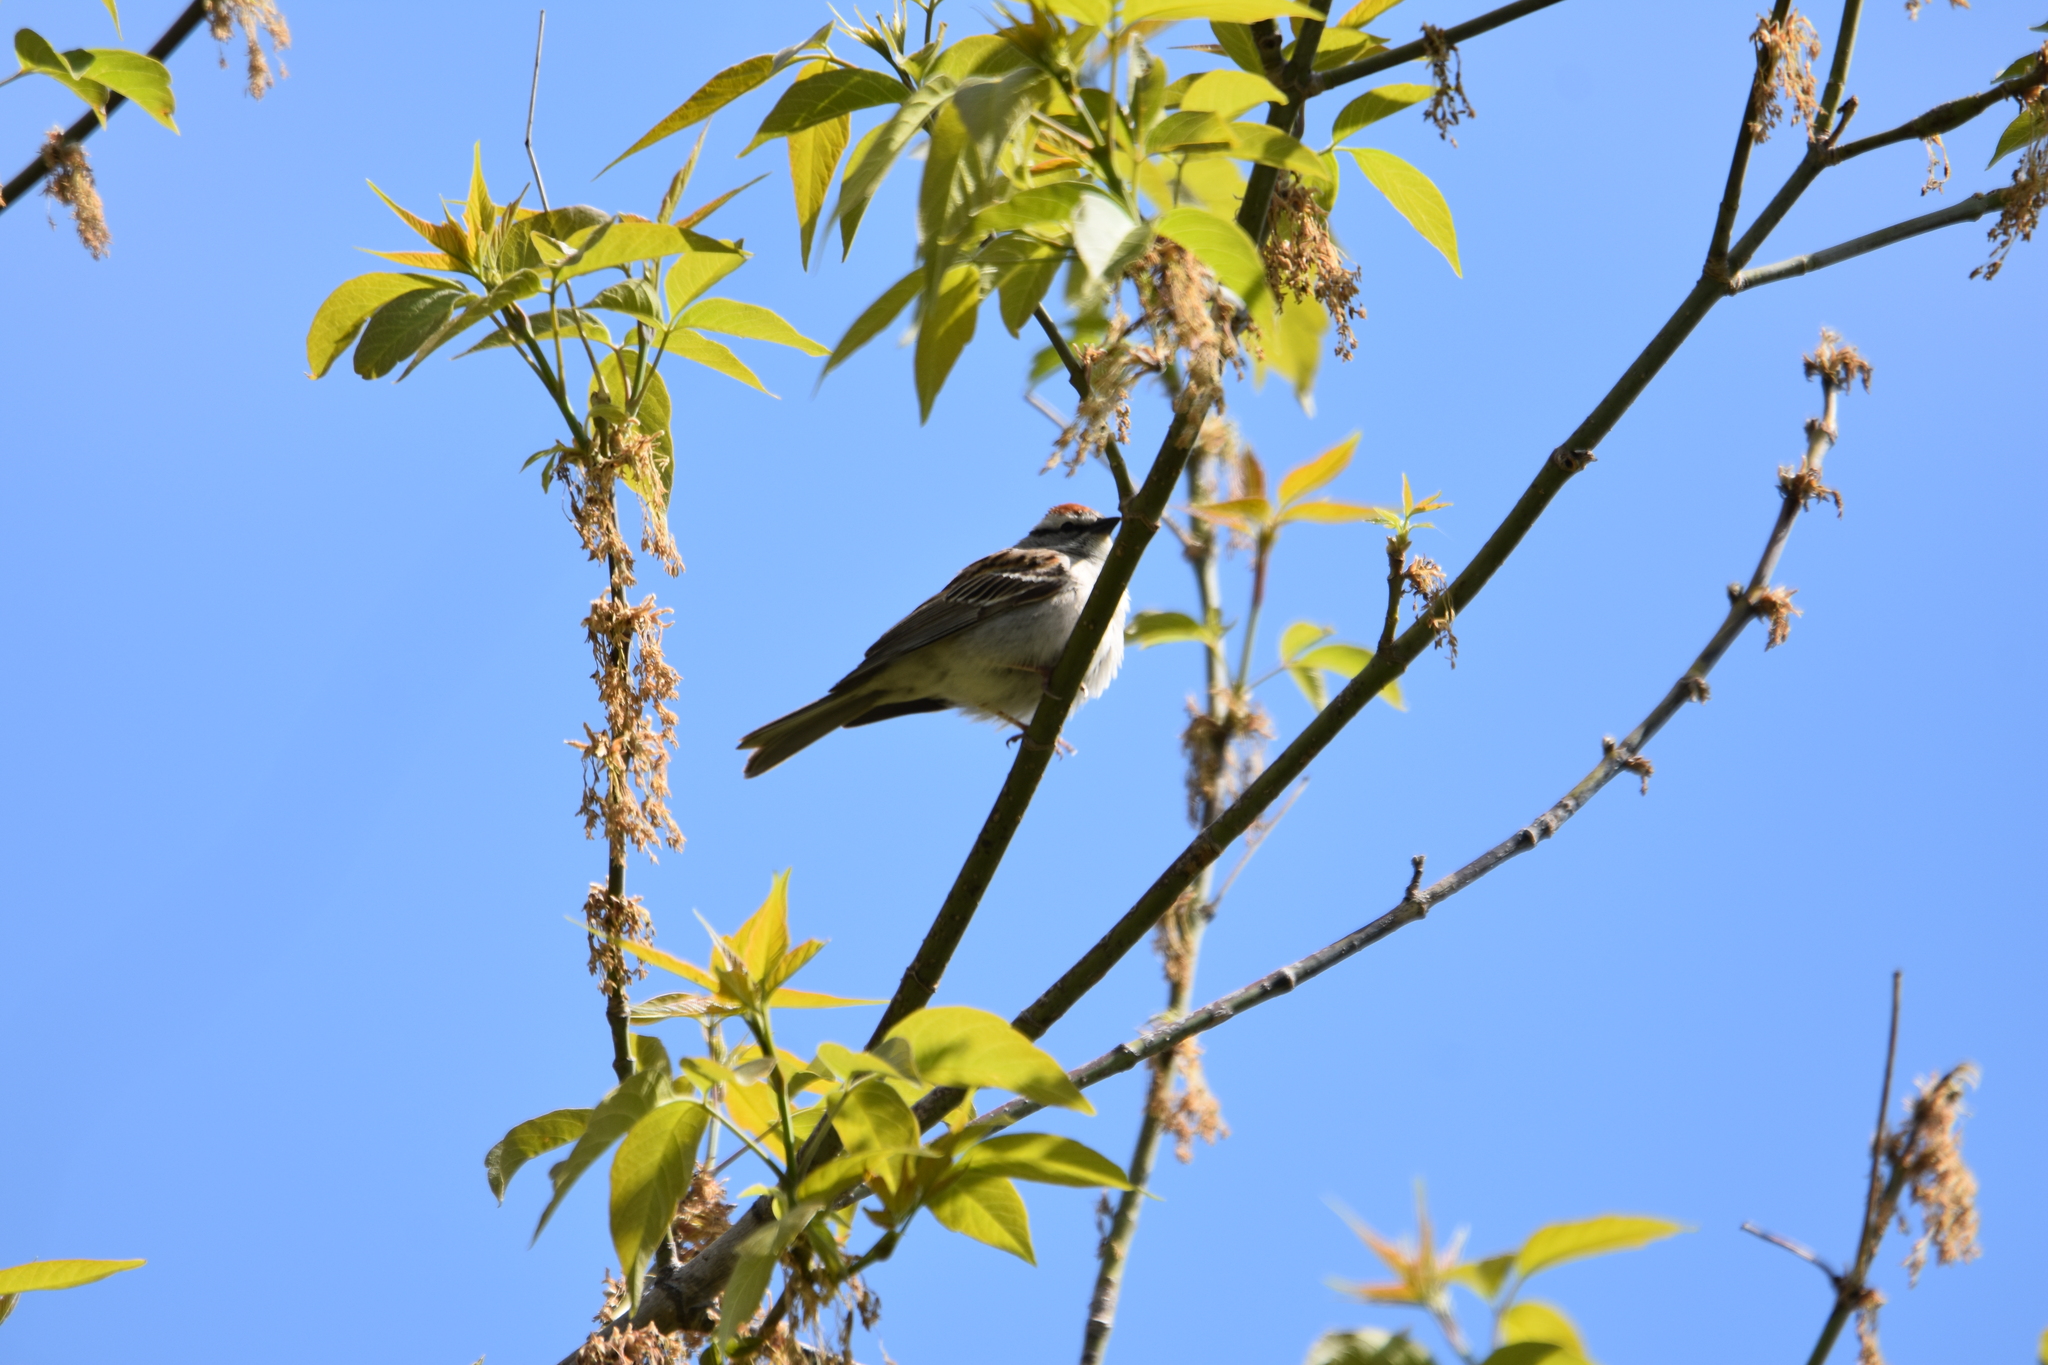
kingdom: Animalia
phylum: Chordata
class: Aves
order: Passeriformes
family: Passerellidae
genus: Spizella
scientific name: Spizella passerina
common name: Chipping sparrow
